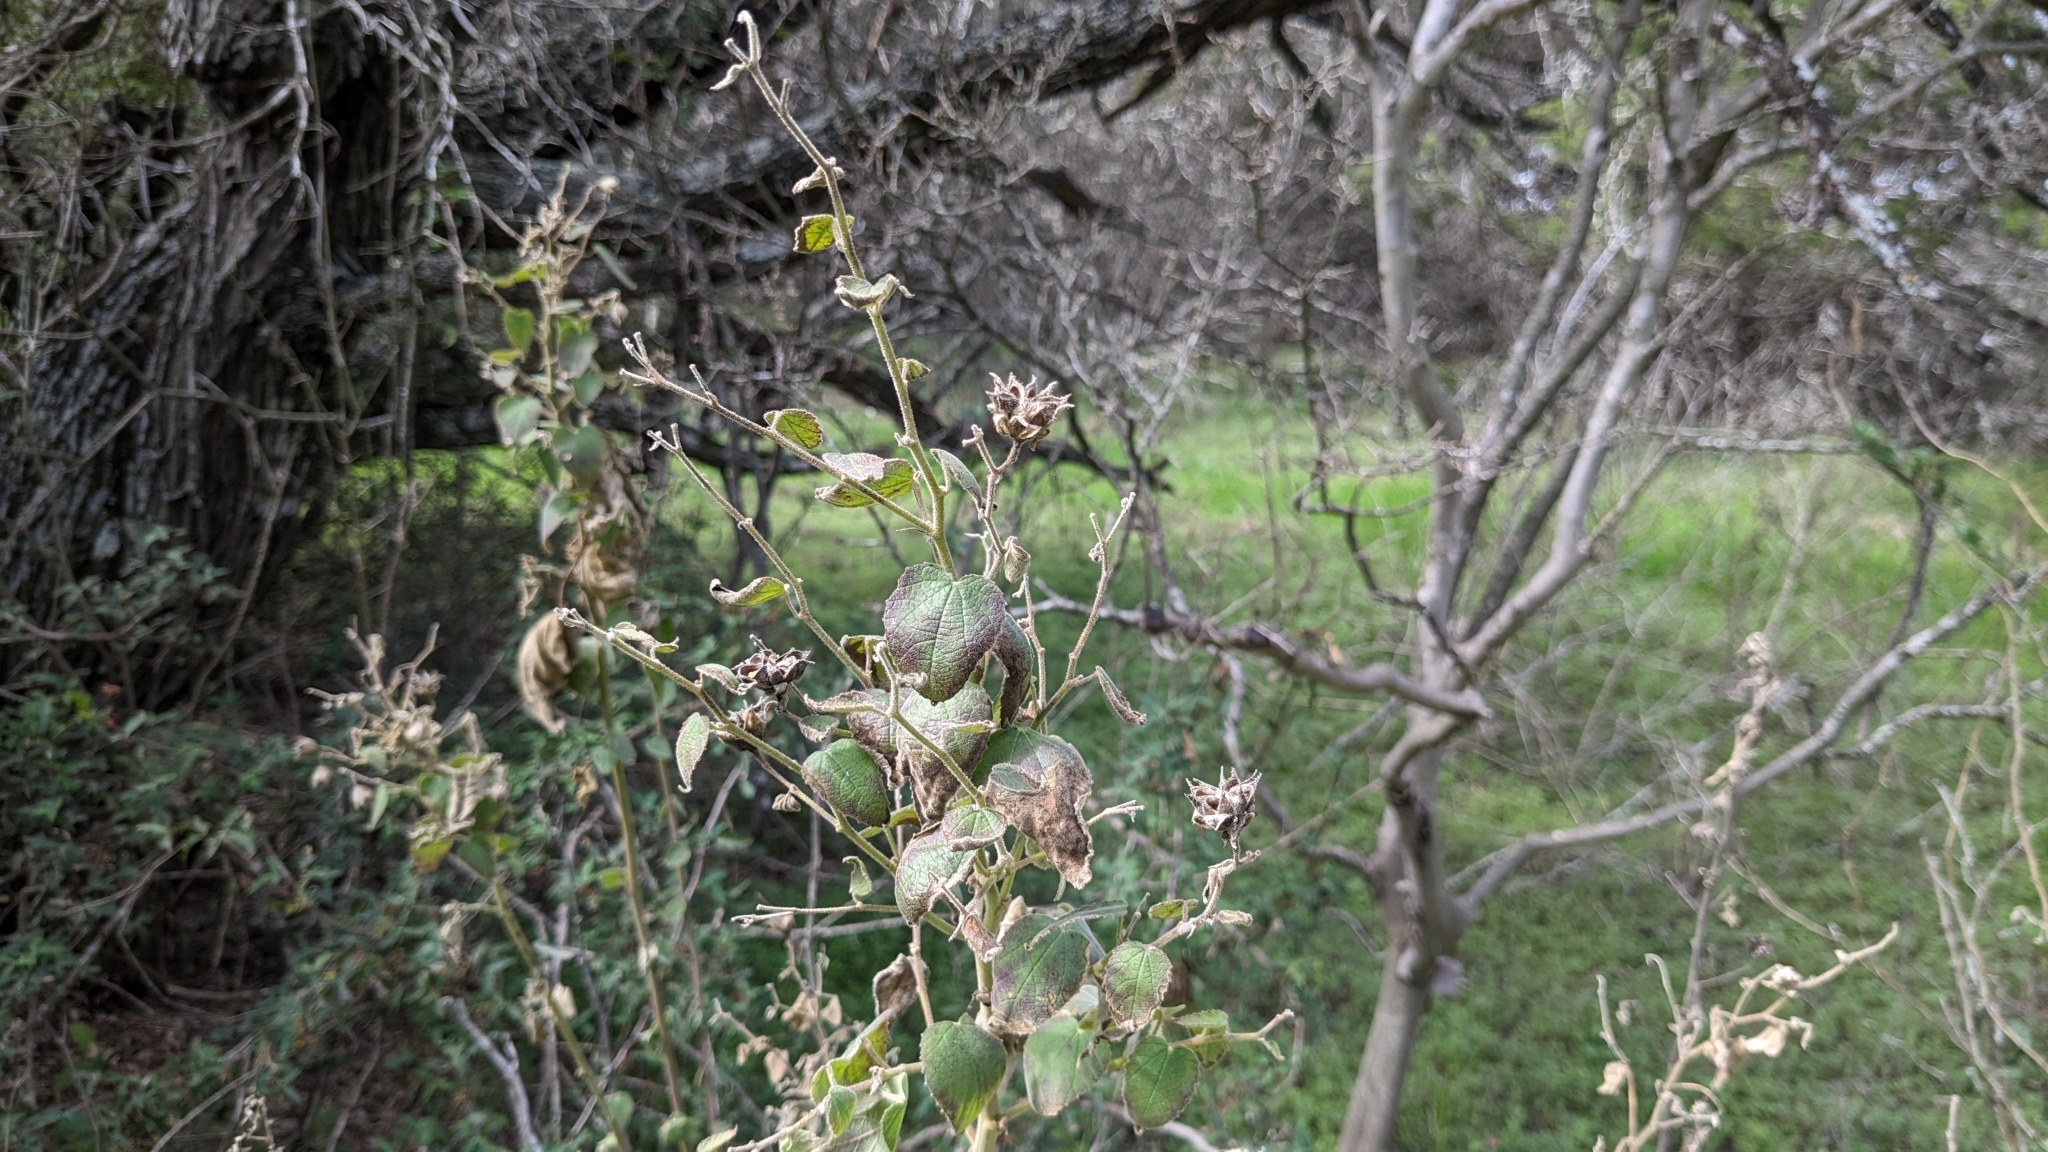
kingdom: Plantae
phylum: Tracheophyta
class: Magnoliopsida
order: Malvales
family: Malvaceae
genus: Allowissadula
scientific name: Allowissadula holosericea
